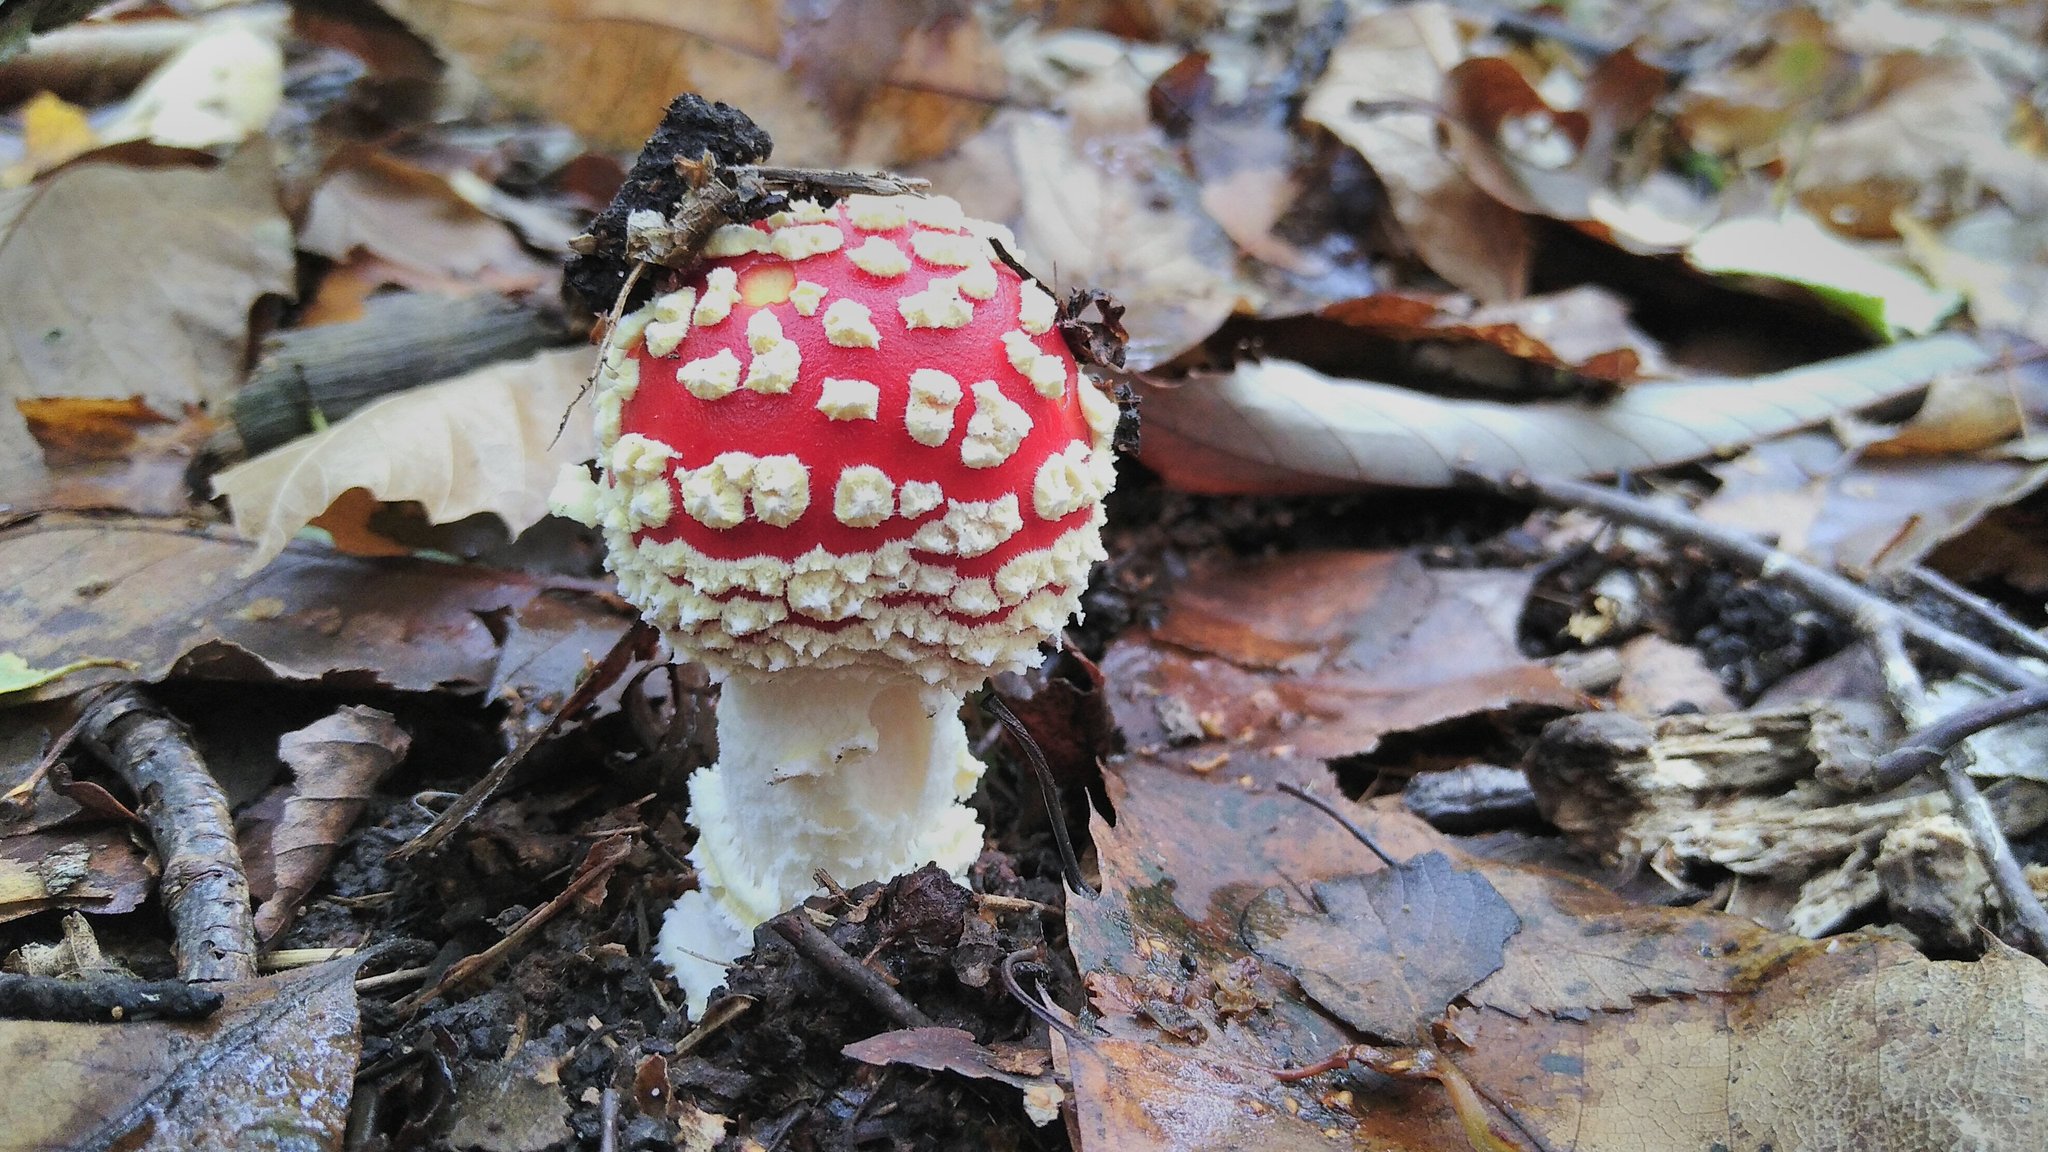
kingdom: Fungi
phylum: Basidiomycota
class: Agaricomycetes
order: Agaricales
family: Amanitaceae
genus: Amanita
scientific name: Amanita muscaria
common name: Fly agaric
